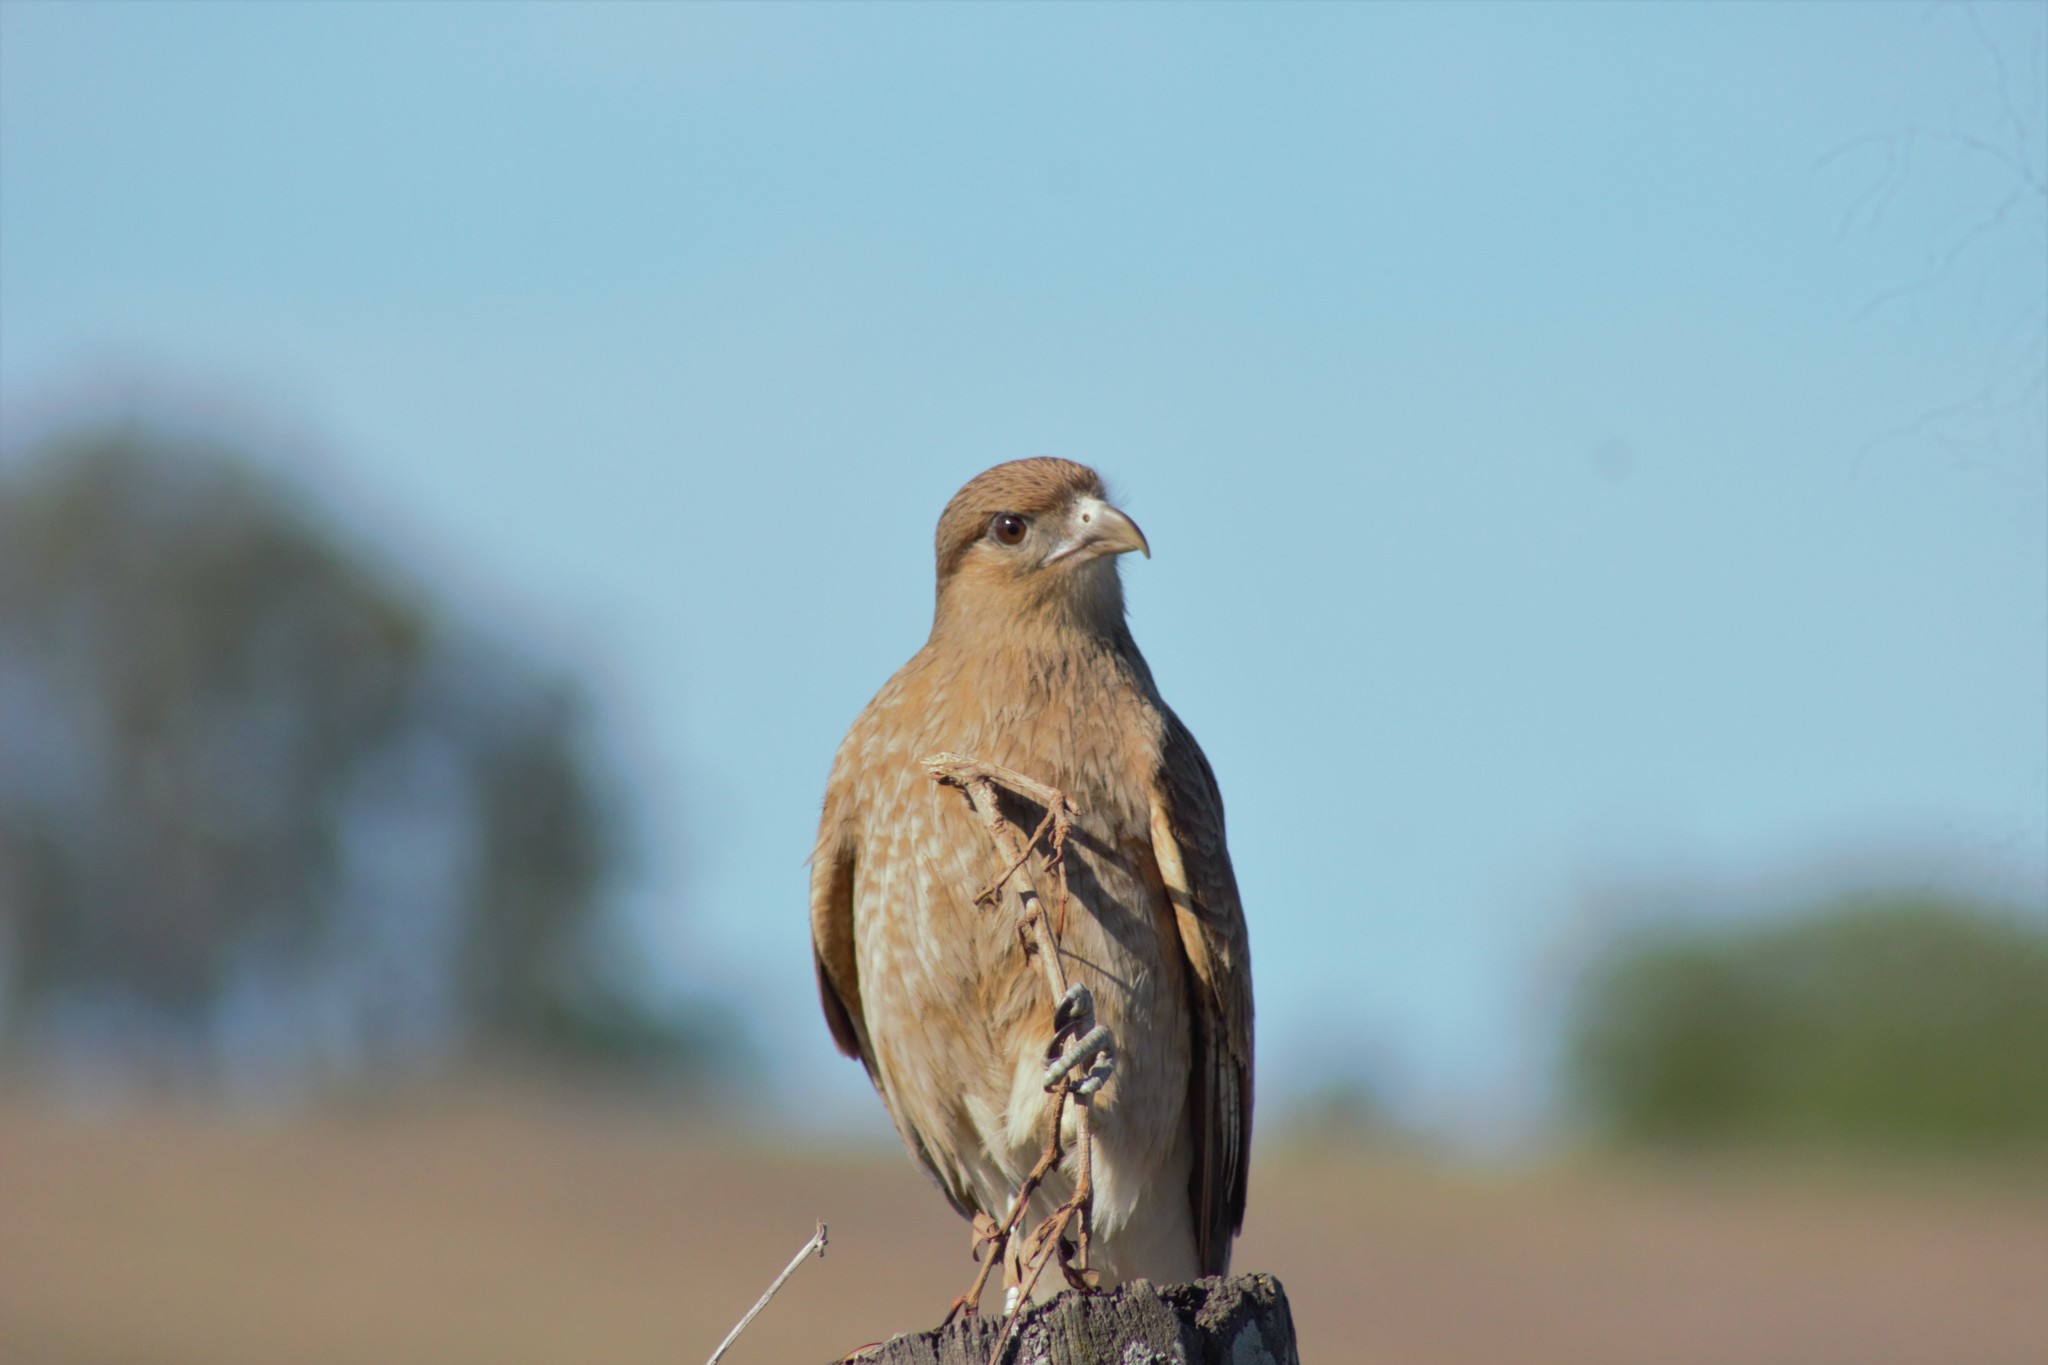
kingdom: Animalia
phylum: Chordata
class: Aves
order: Falconiformes
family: Falconidae
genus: Daptrius
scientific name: Daptrius
